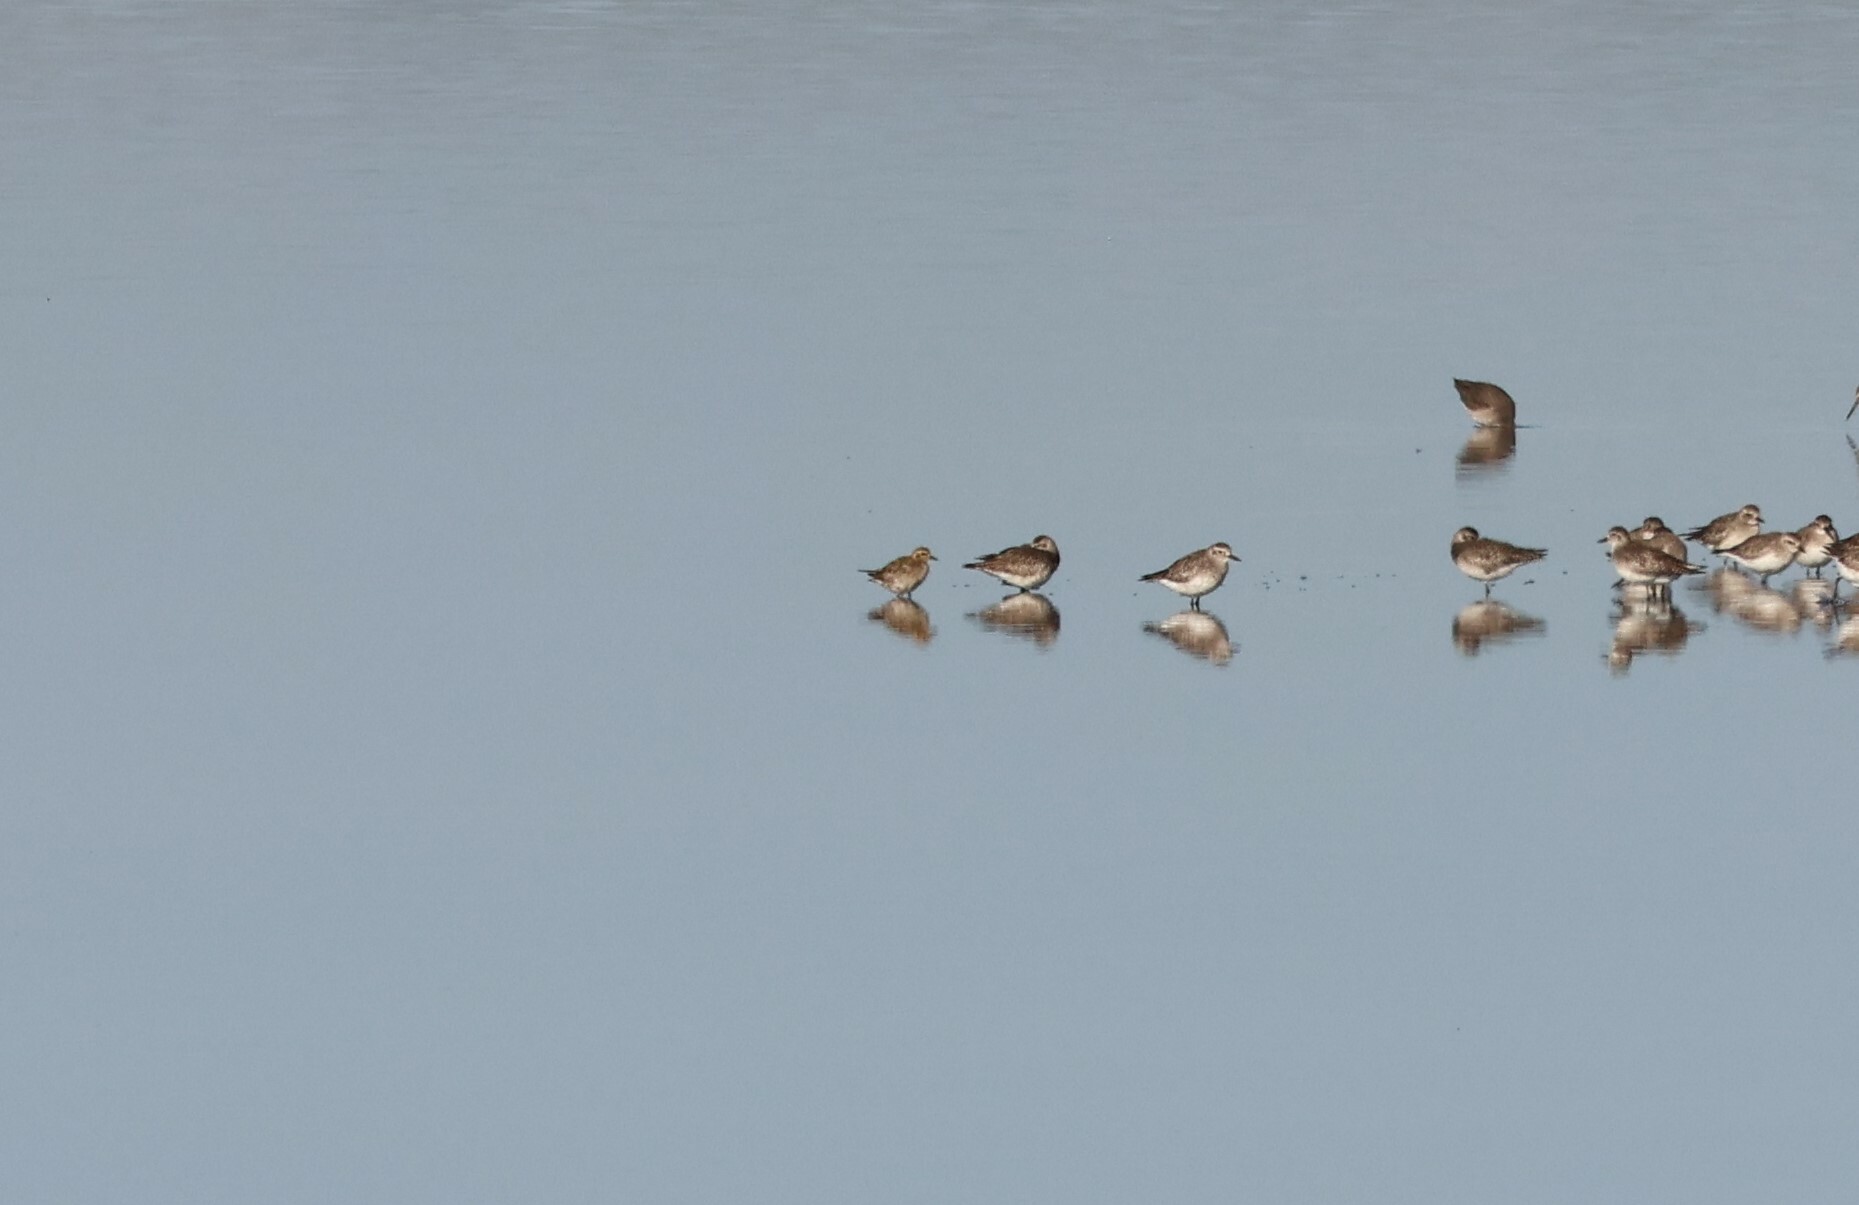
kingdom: Animalia
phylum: Chordata
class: Aves
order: Charadriiformes
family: Charadriidae
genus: Pluvialis
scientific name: Pluvialis fulva
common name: Pacific golden plover
